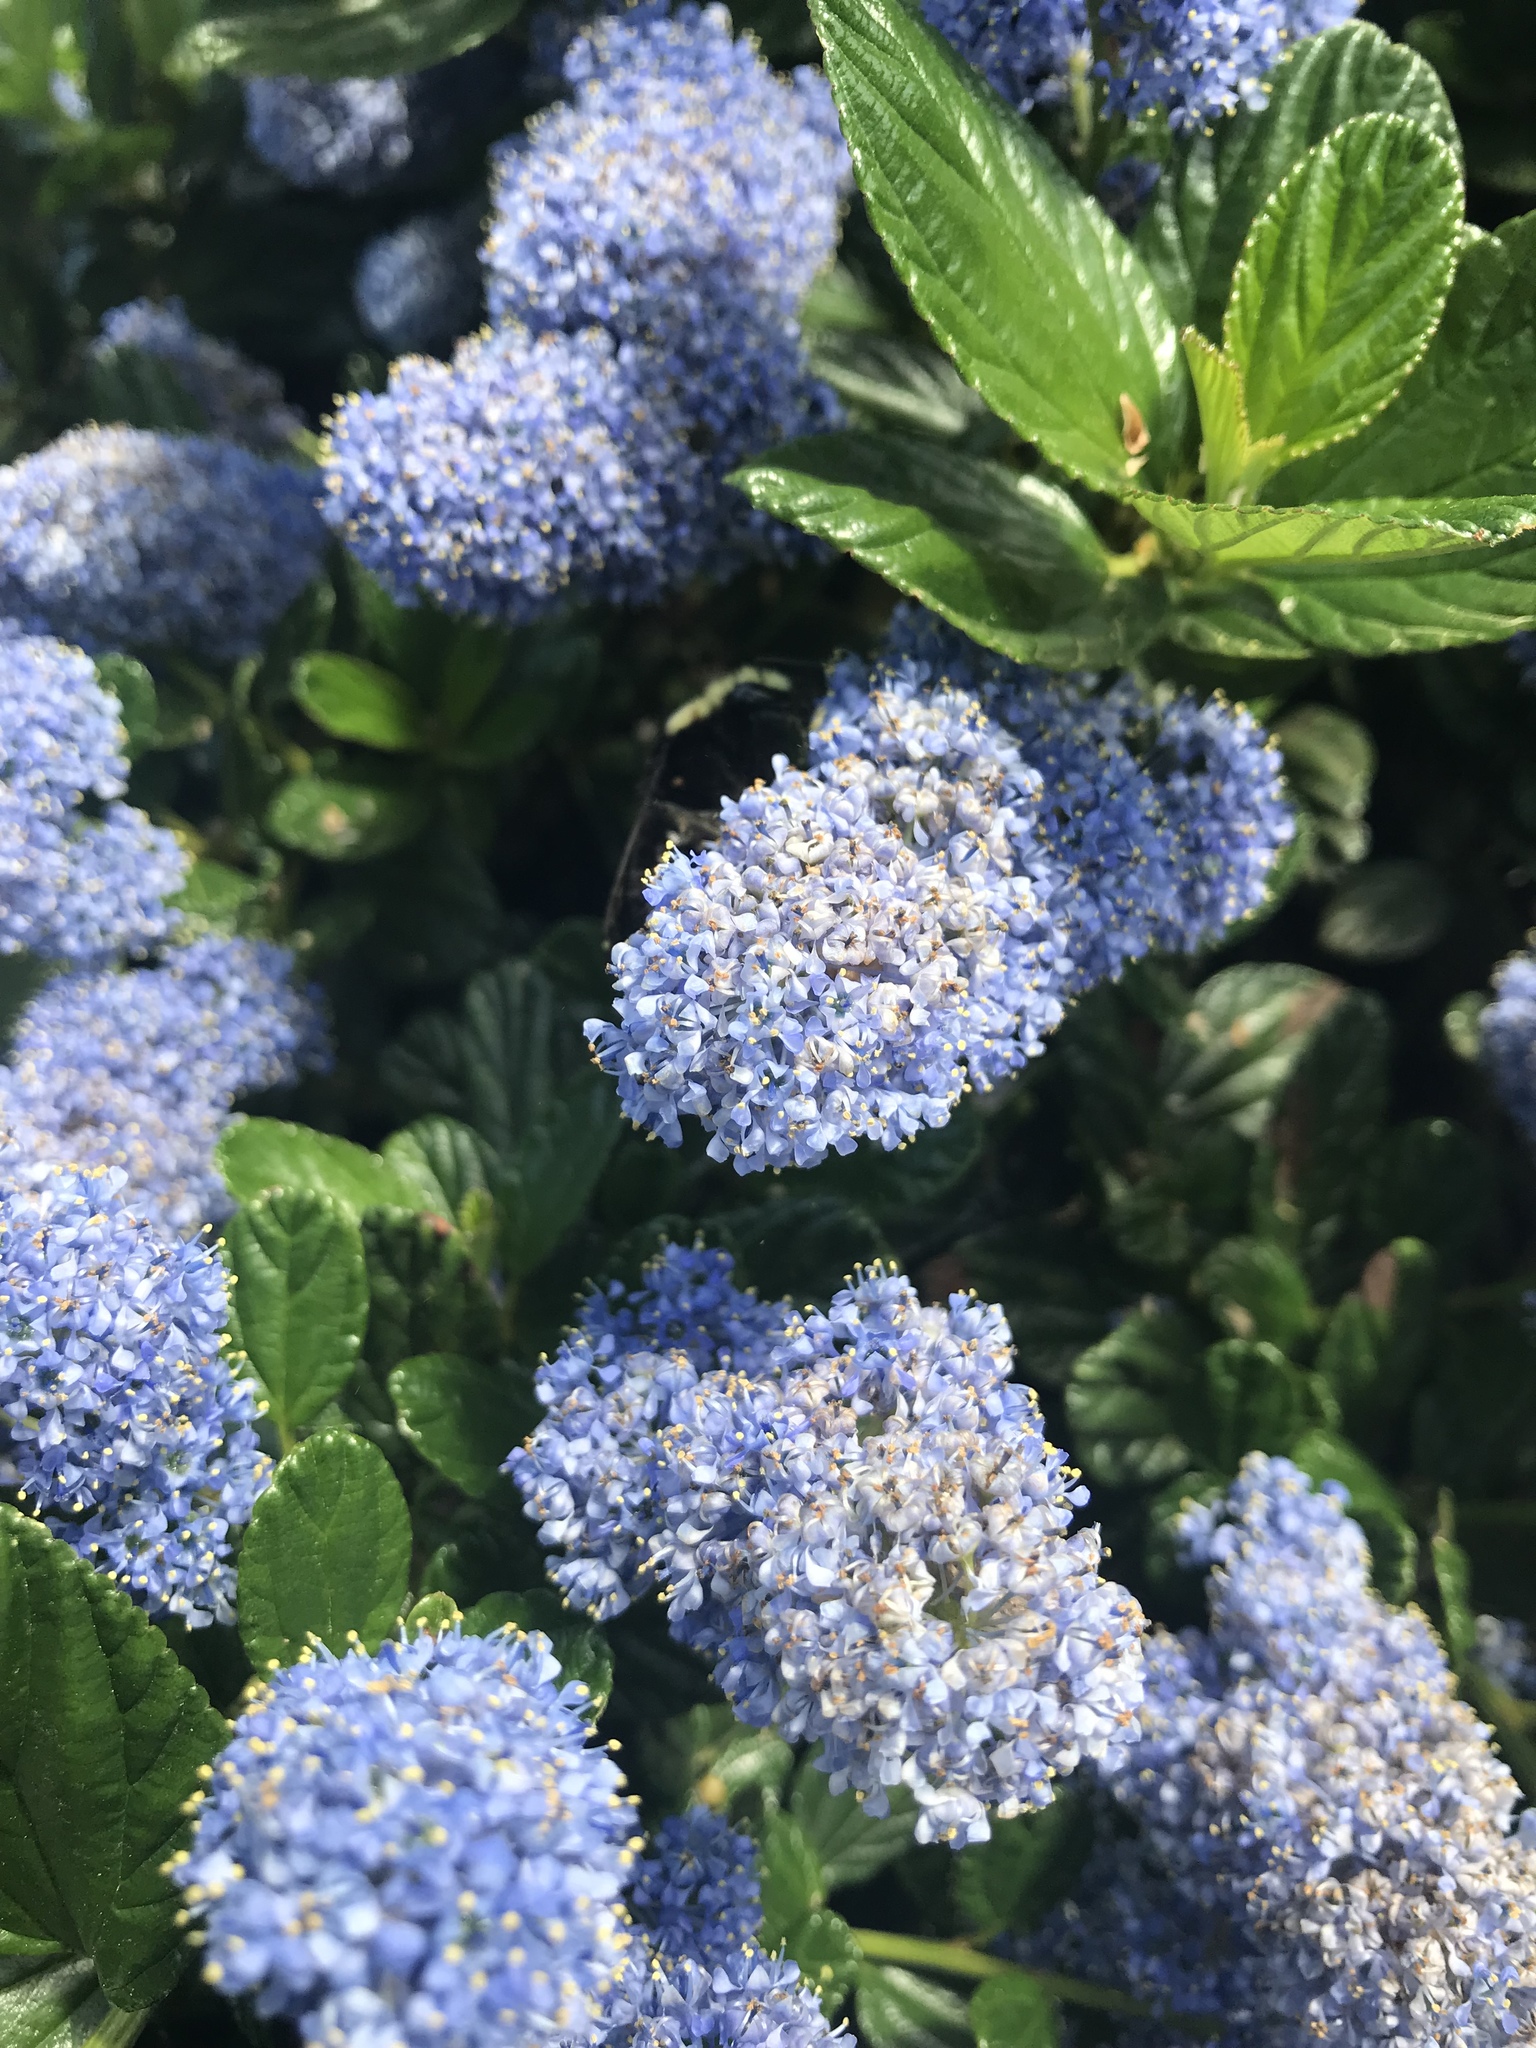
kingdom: Animalia
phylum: Arthropoda
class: Insecta
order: Hymenoptera
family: Apidae
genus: Pyrobombus
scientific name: Pyrobombus
